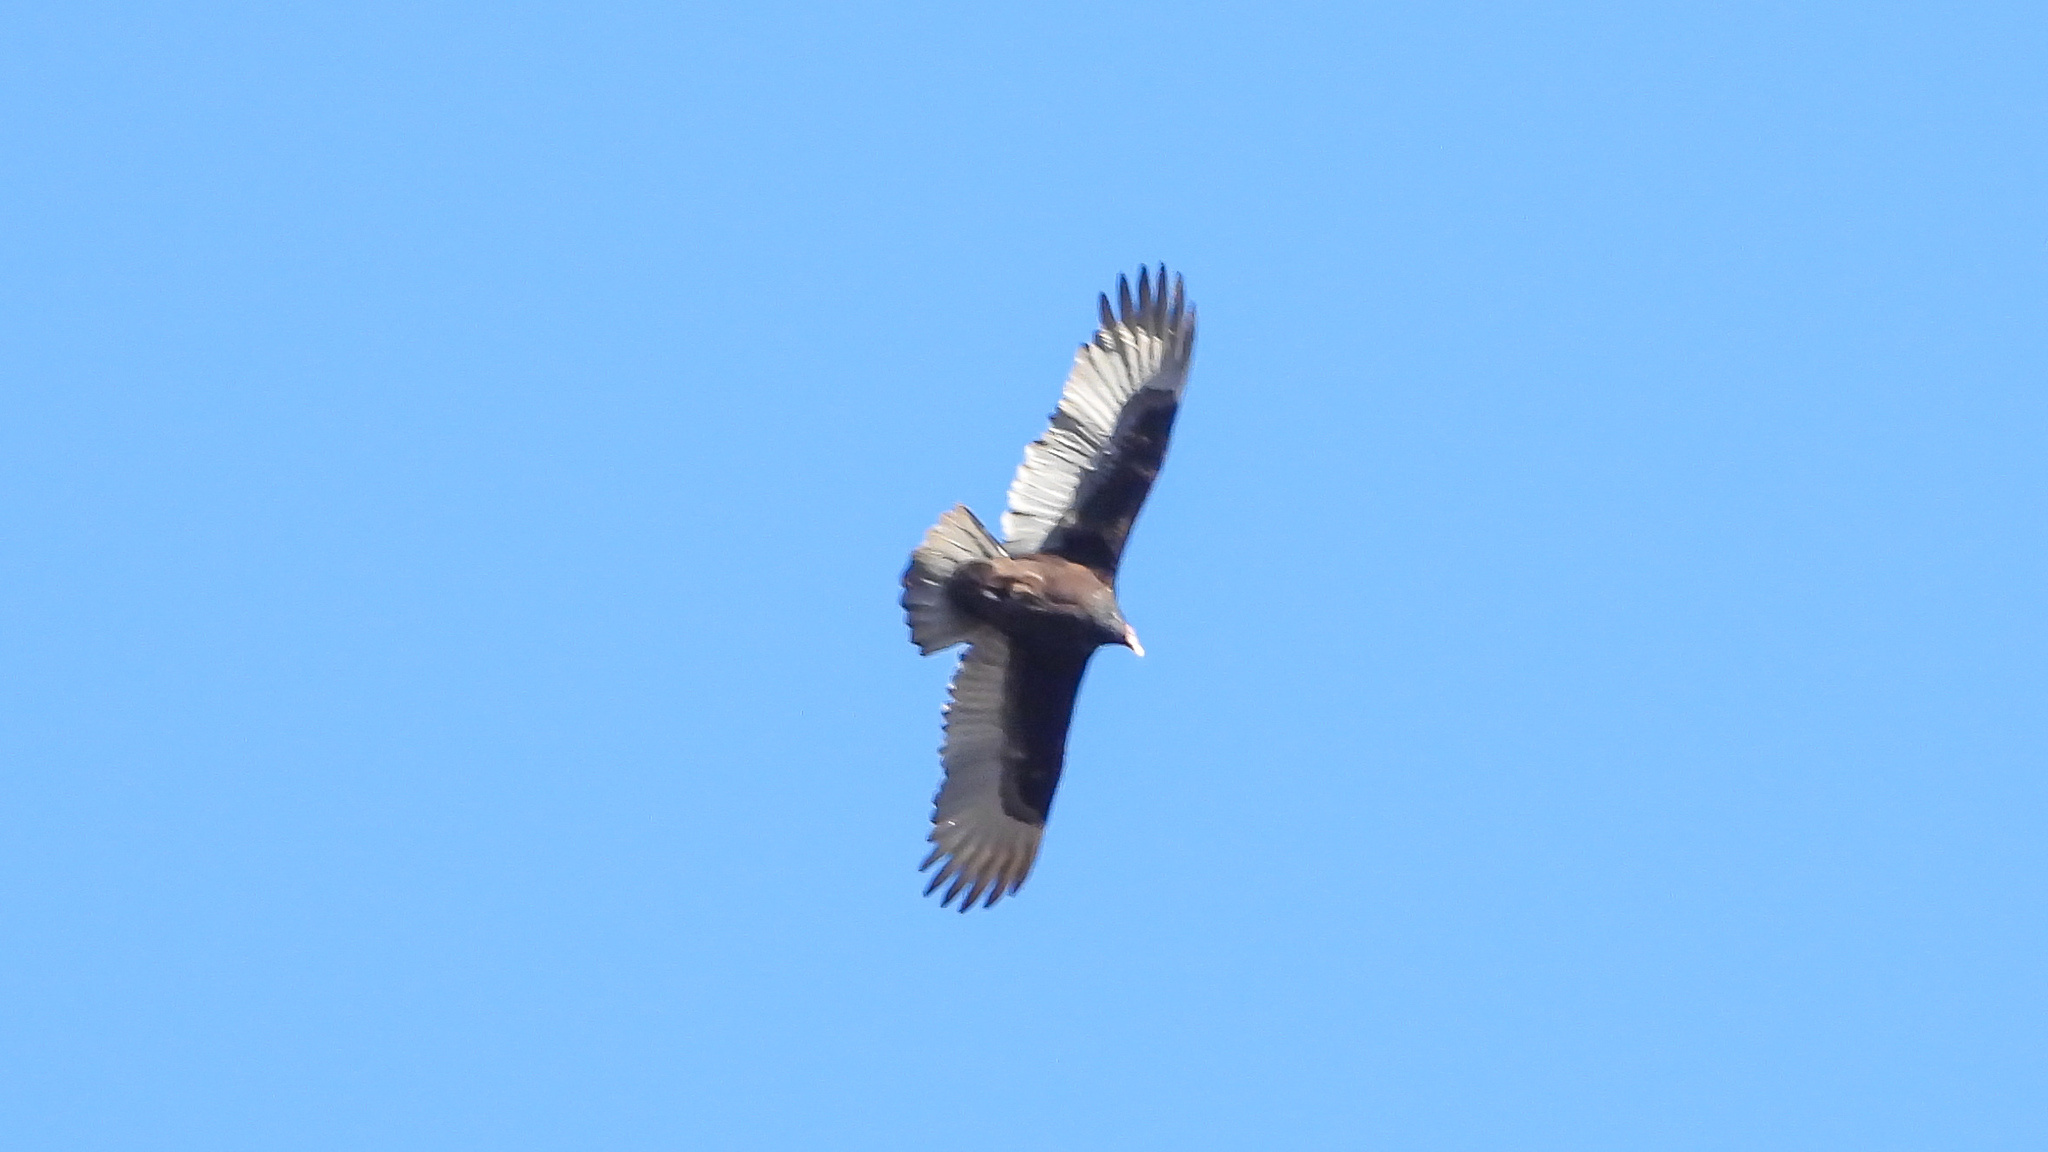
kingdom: Animalia
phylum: Chordata
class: Aves
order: Accipitriformes
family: Cathartidae
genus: Cathartes
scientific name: Cathartes aura
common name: Turkey vulture
